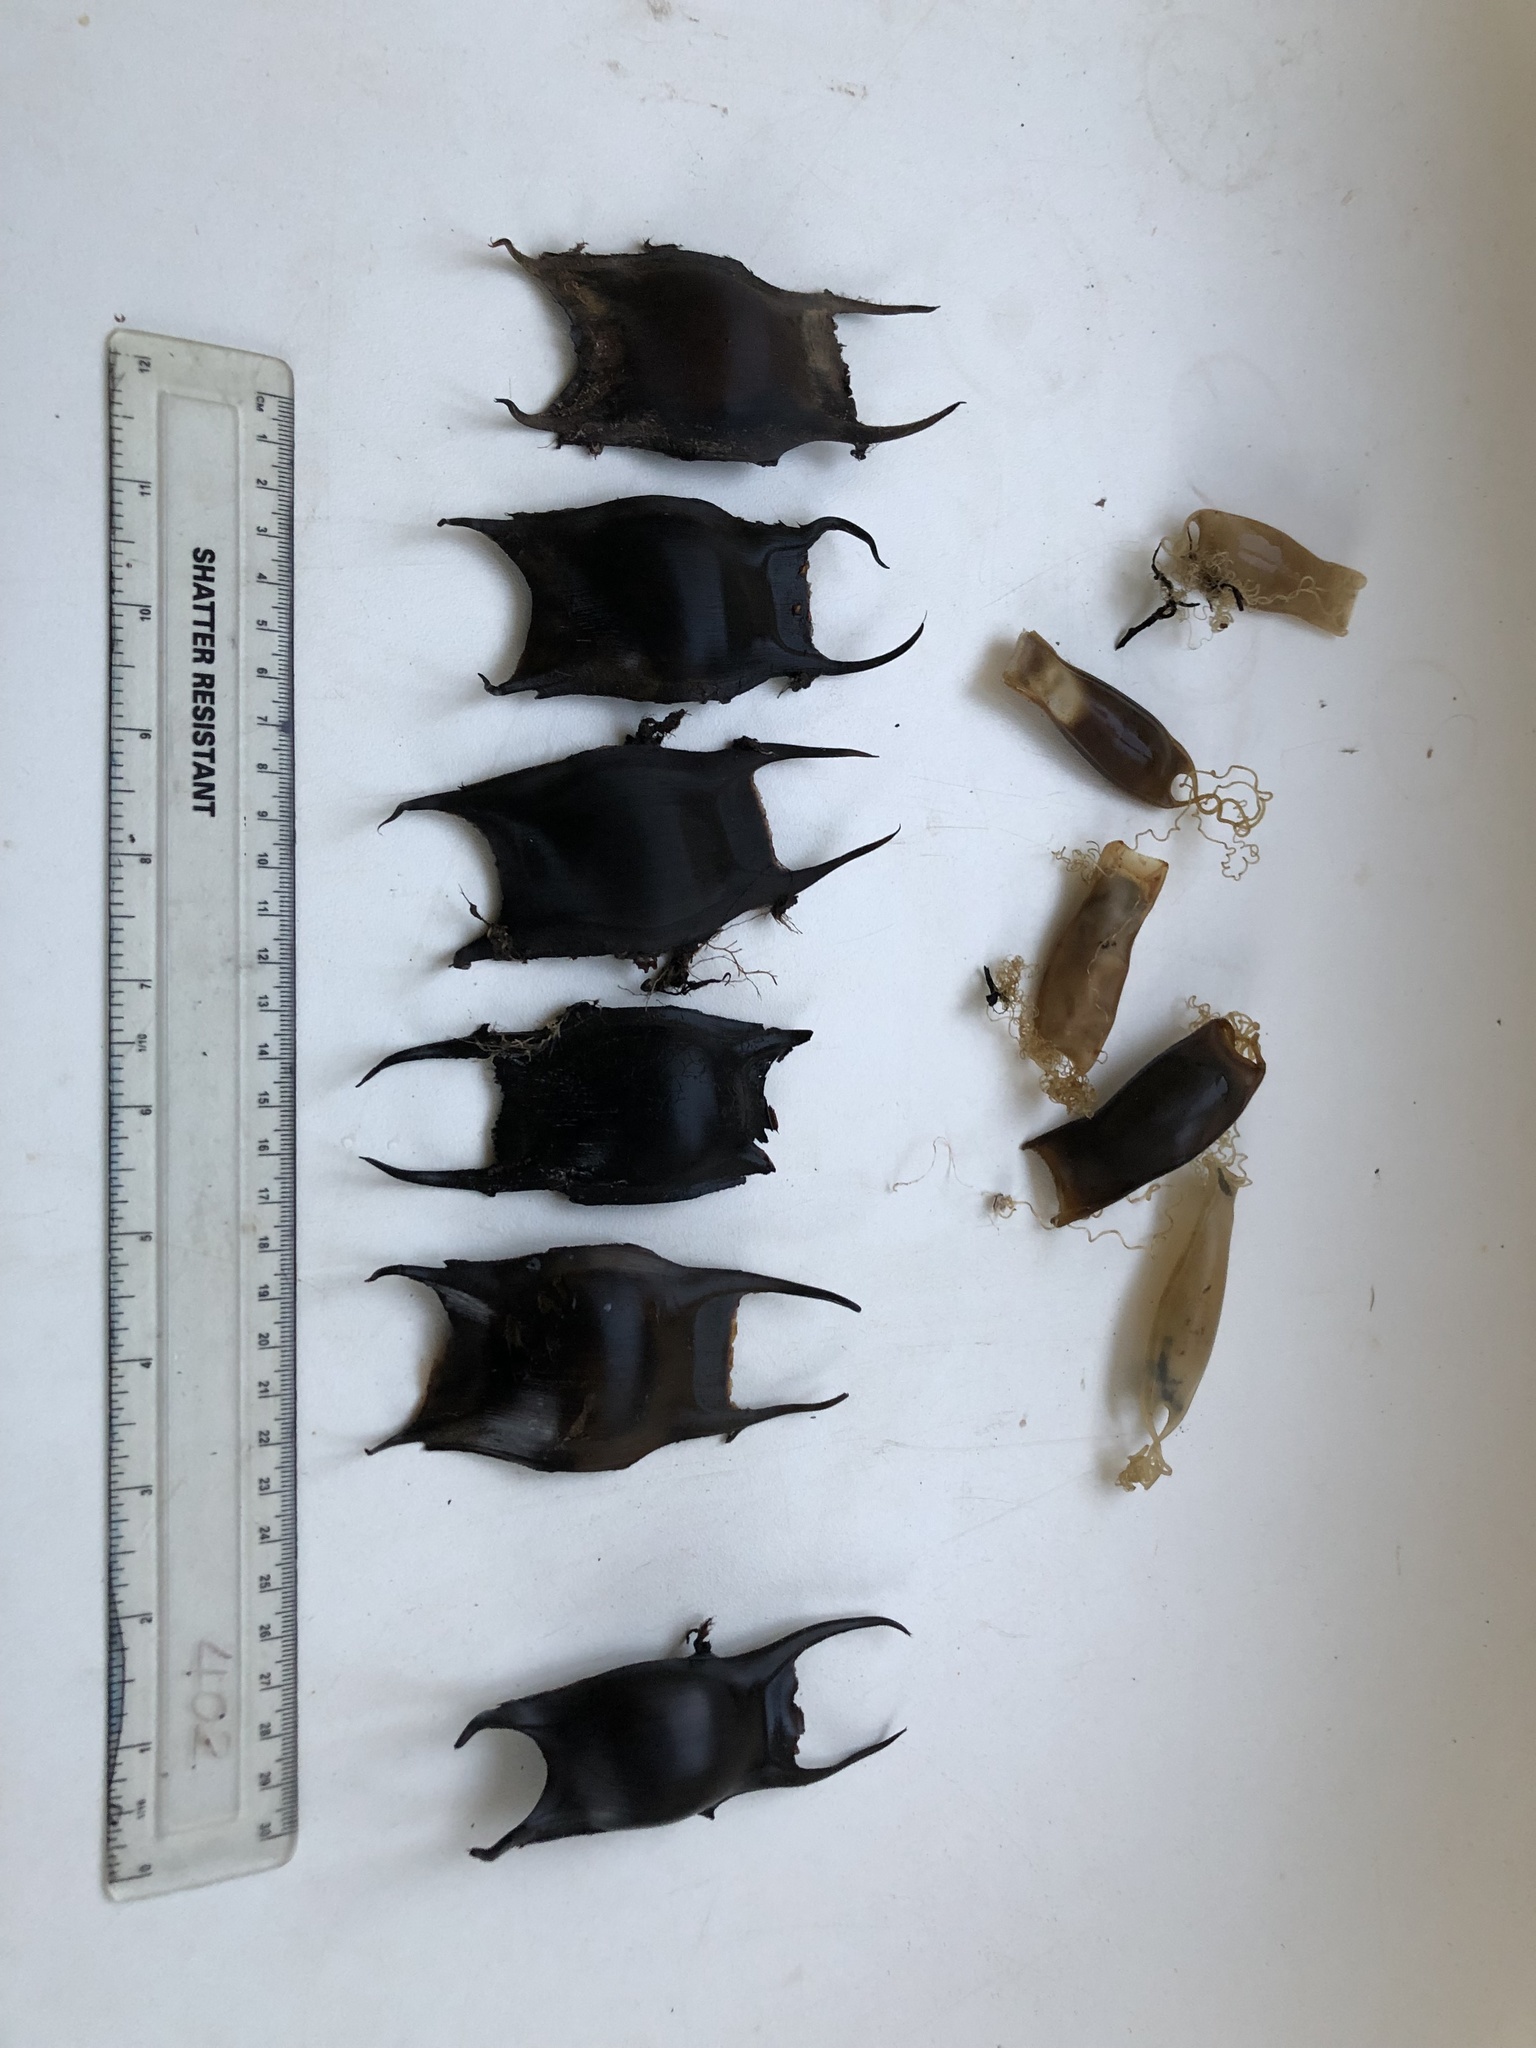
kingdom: Animalia
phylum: Chordata
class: Elasmobranchii
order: Rajiformes
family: Rajidae
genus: Raja
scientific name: Raja montagui
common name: Spotted ray
